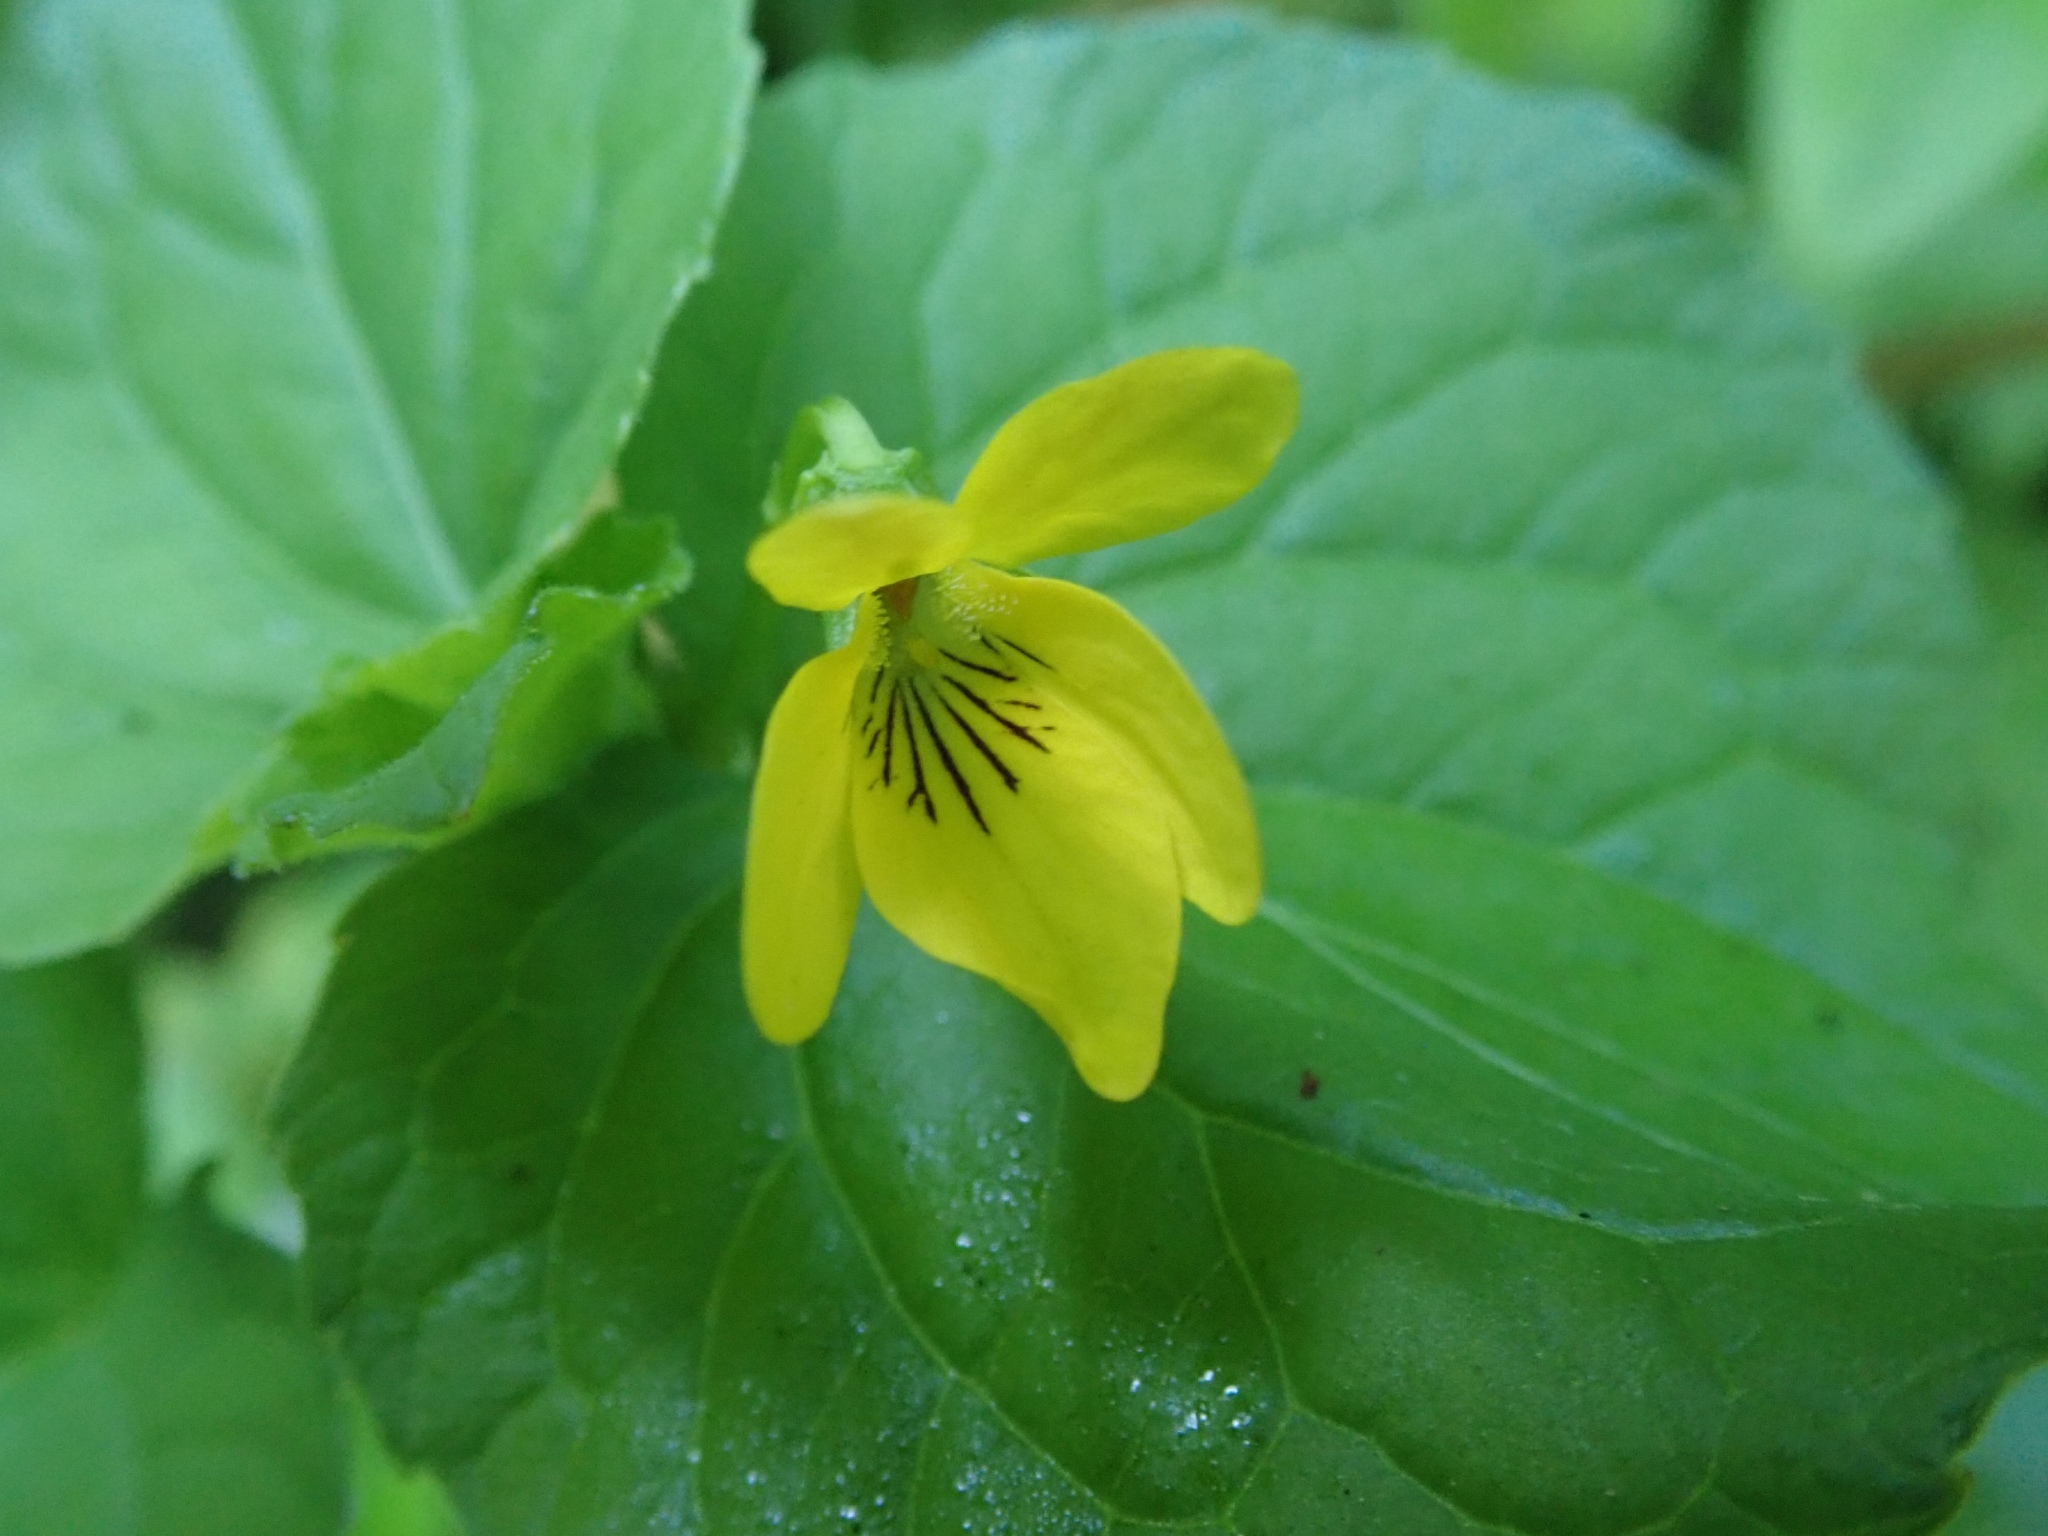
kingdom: Plantae
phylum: Tracheophyta
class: Magnoliopsida
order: Malpighiales
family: Violaceae
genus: Viola
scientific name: Viola glabella
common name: Stream violet
